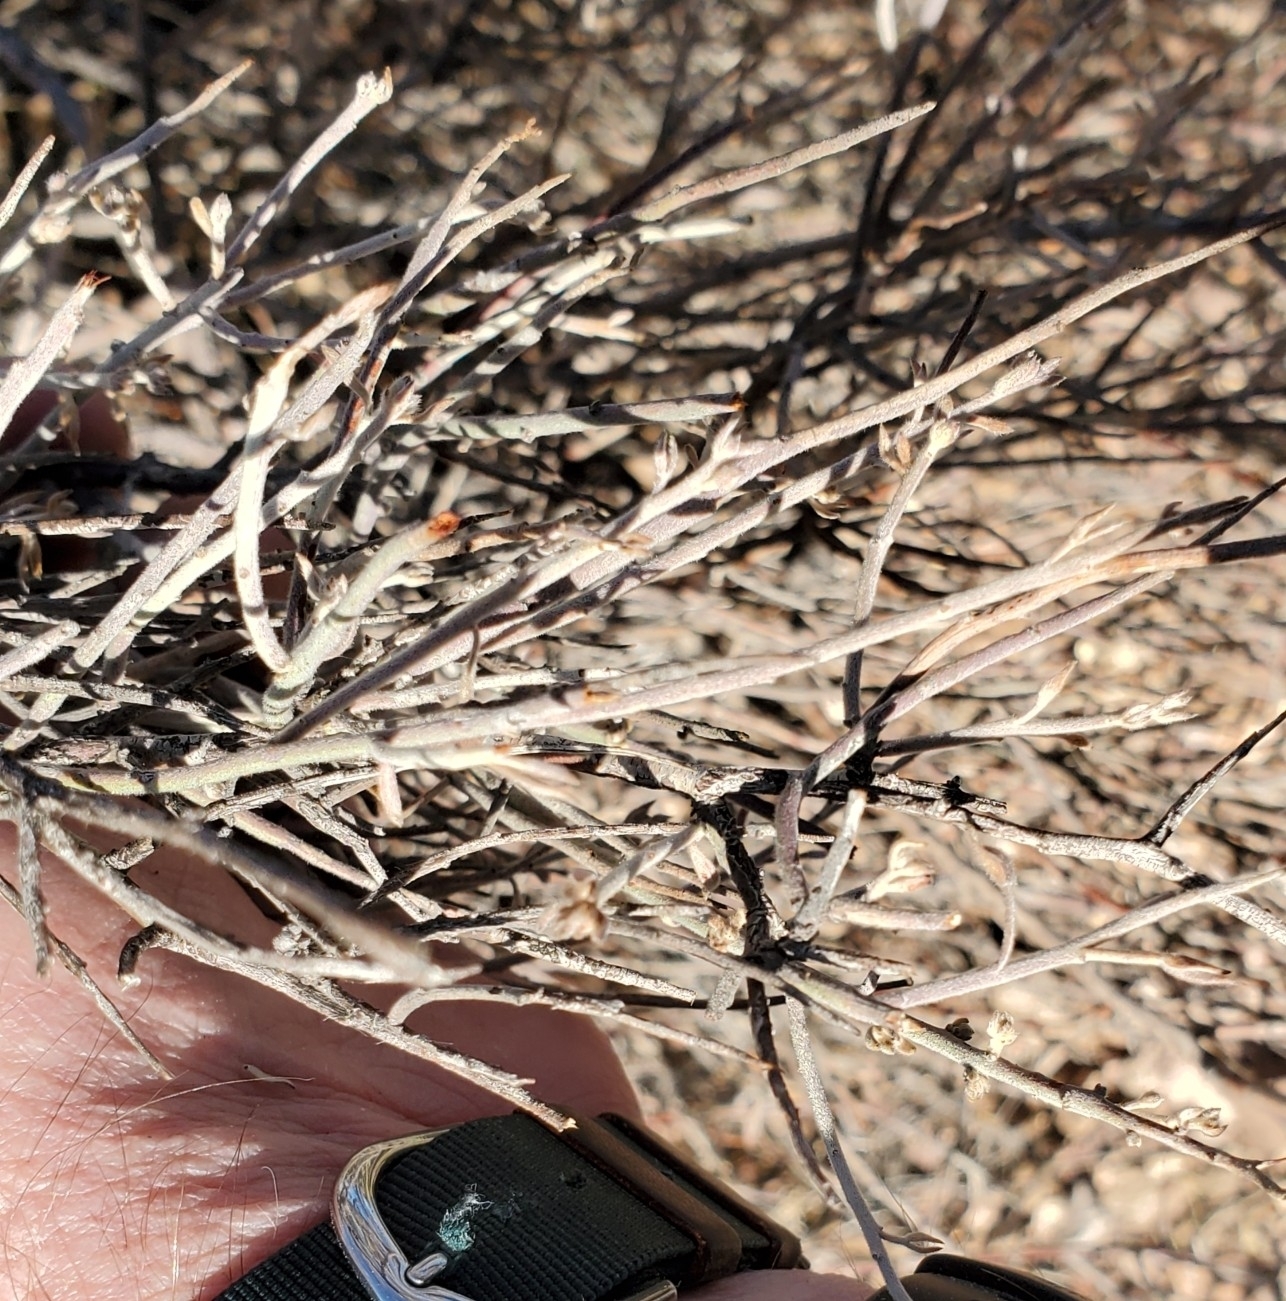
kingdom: Plantae
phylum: Tracheophyta
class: Magnoliopsida
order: Zygophyllales
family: Krameriaceae
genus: Krameria
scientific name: Krameria bicolor
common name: White ratany
